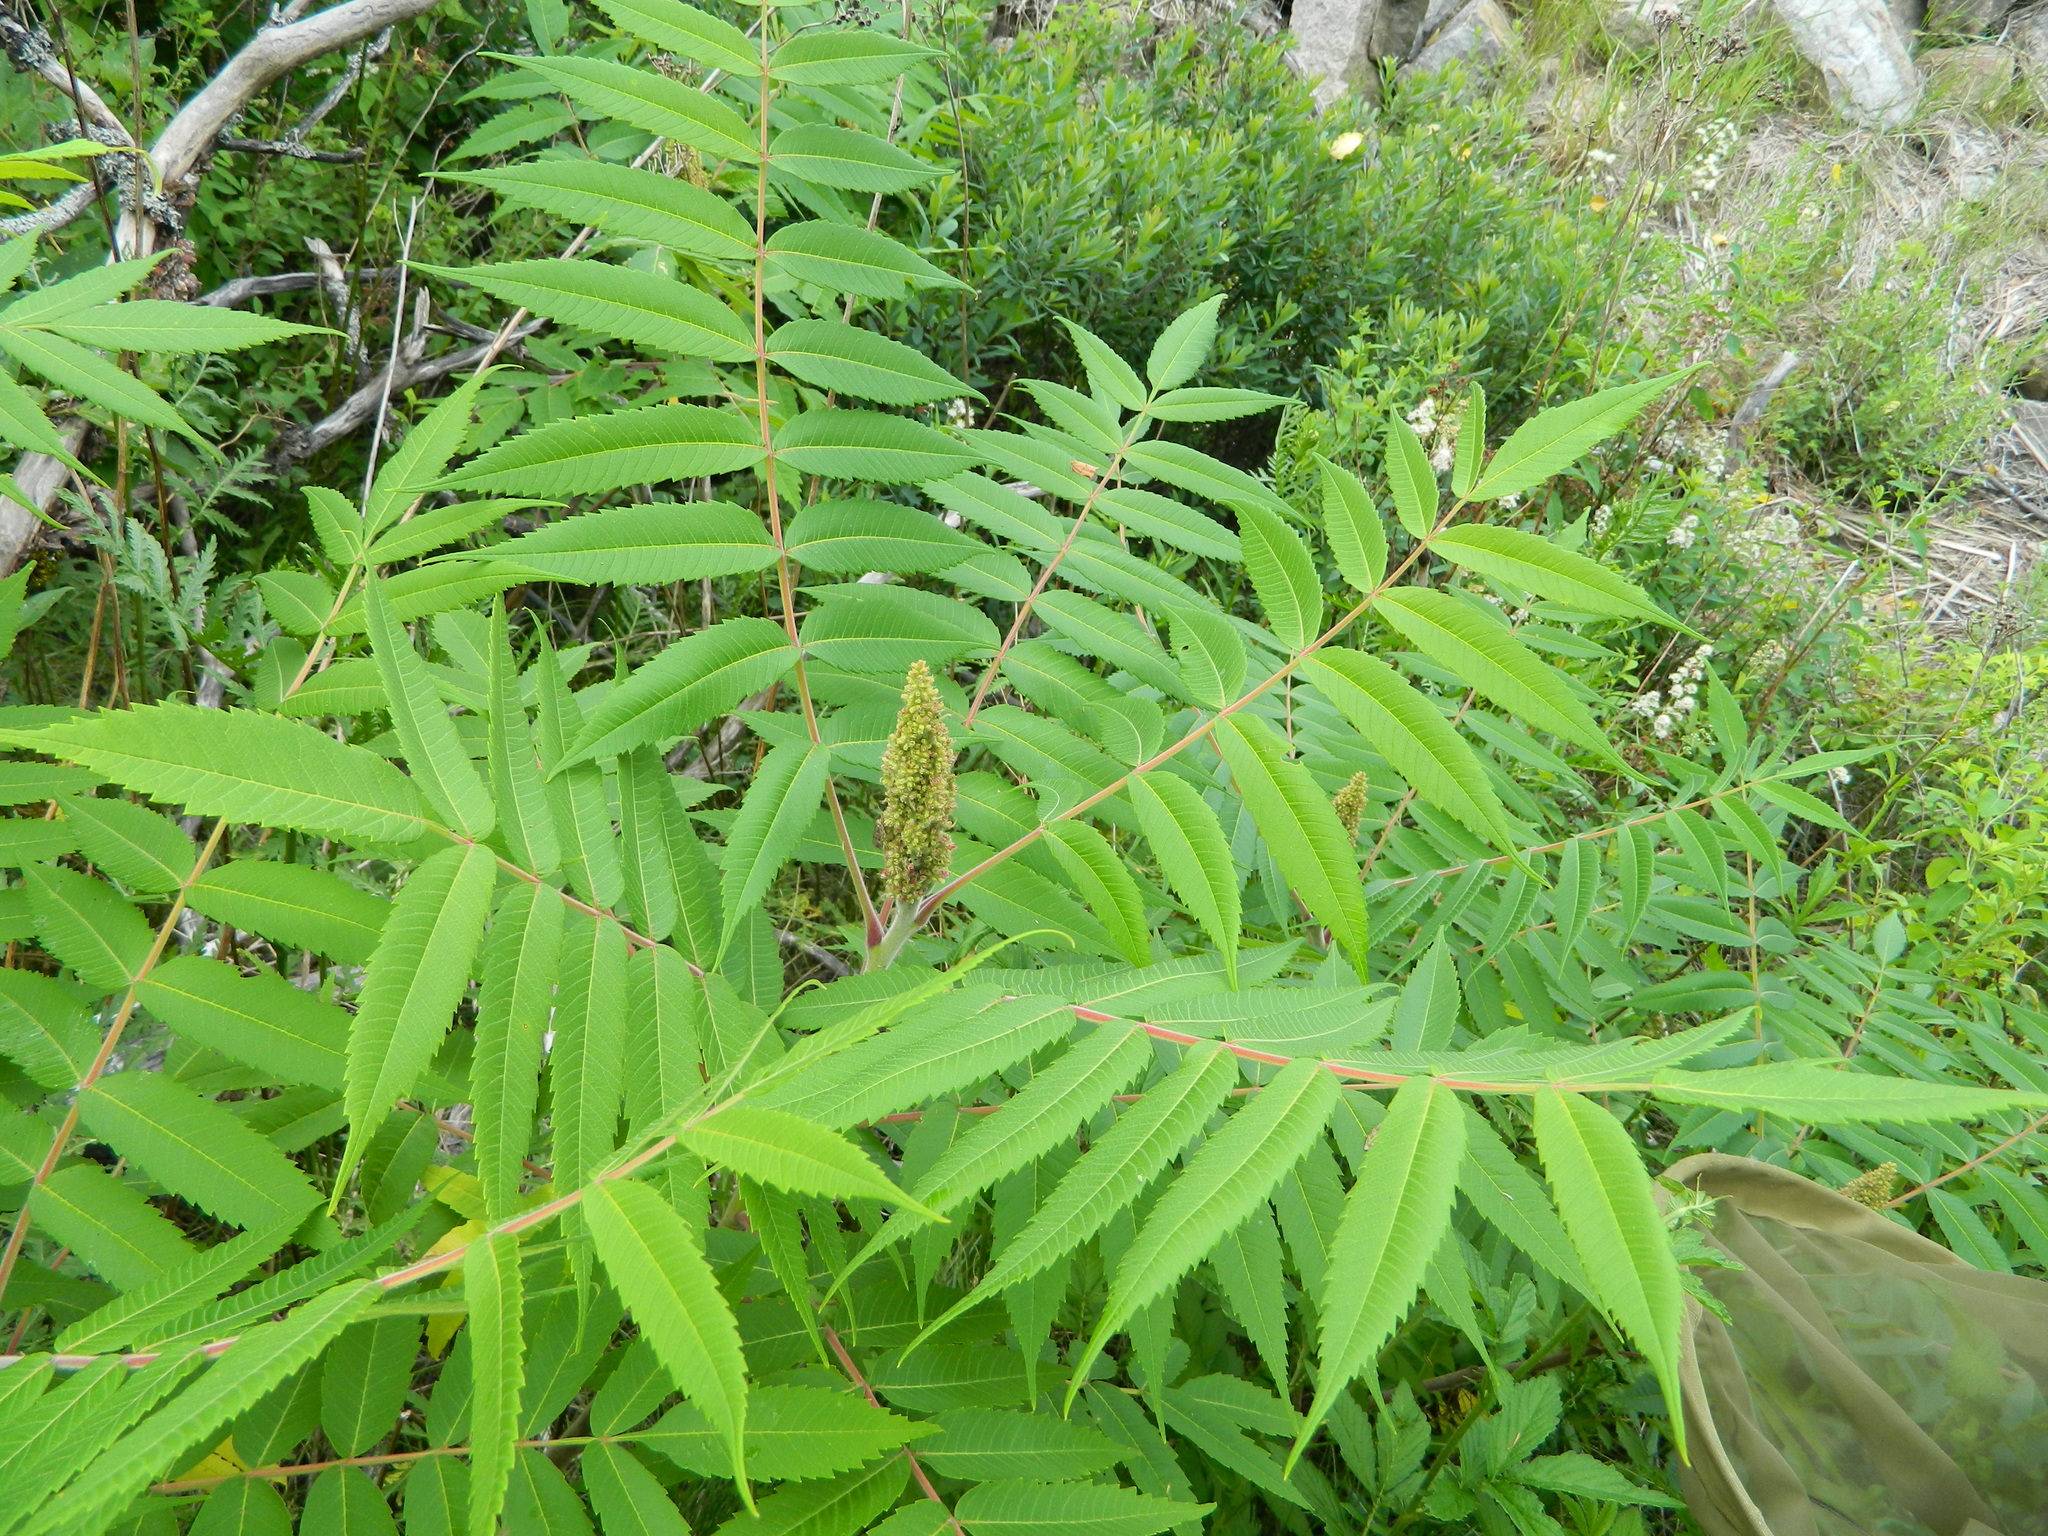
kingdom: Plantae
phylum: Tracheophyta
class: Magnoliopsida
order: Sapindales
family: Anacardiaceae
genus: Rhus
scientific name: Rhus typhina
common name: Staghorn sumac
